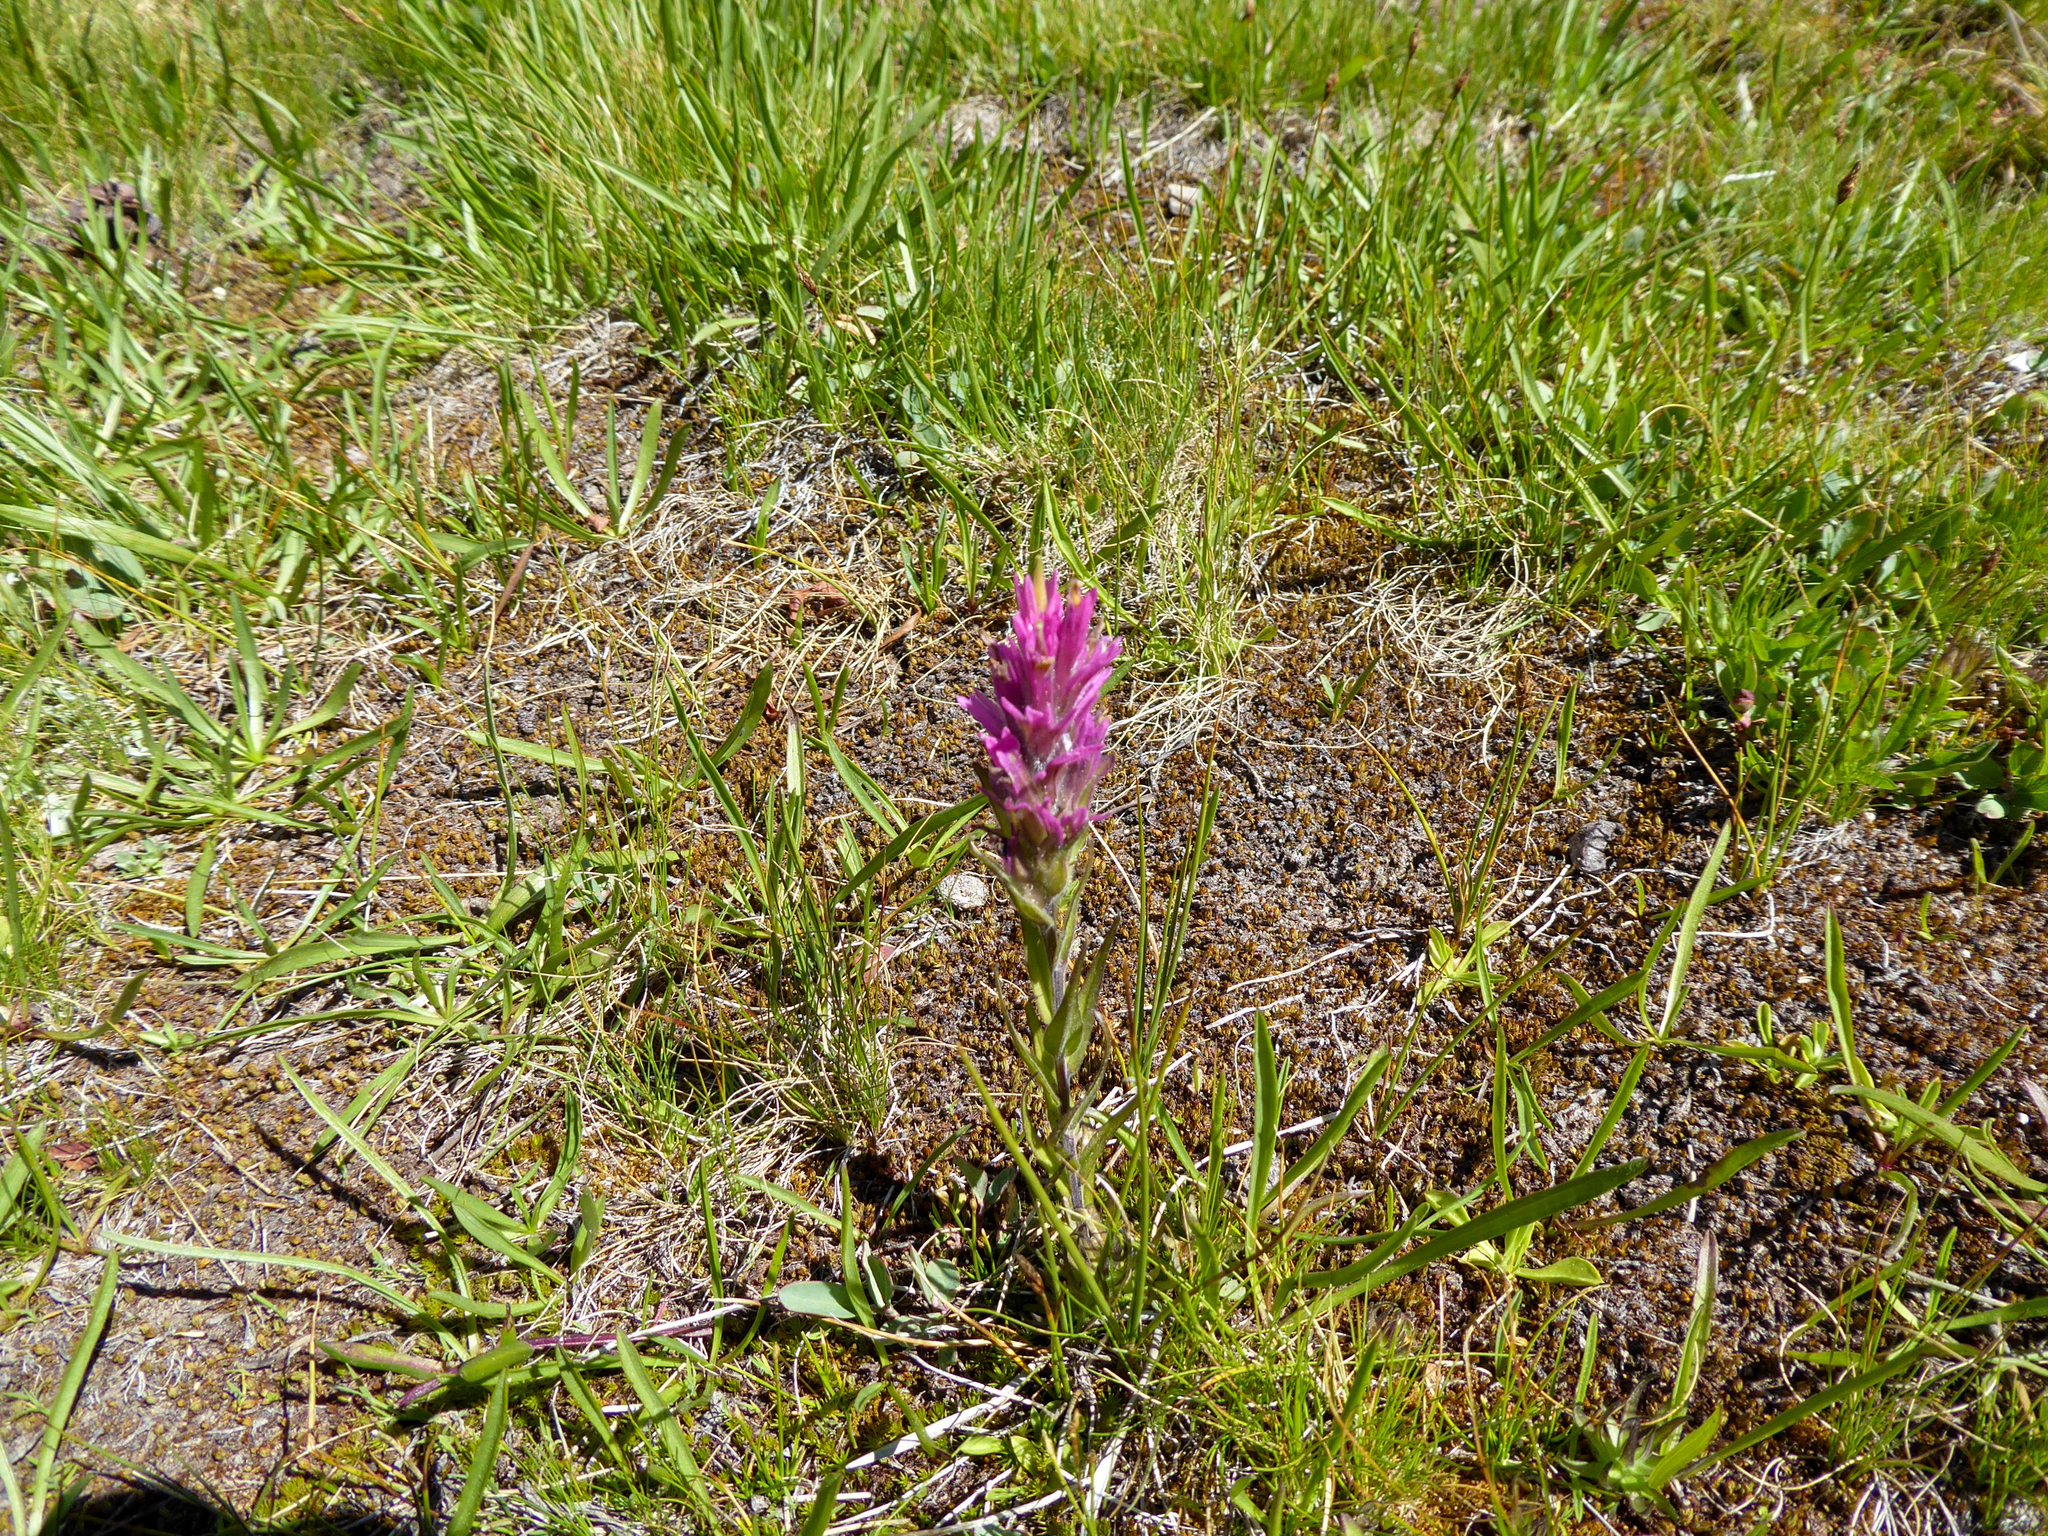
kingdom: Plantae
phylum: Tracheophyta
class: Magnoliopsida
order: Lamiales
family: Orobanchaceae
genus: Castilleja
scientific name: Castilleja lemmonii
